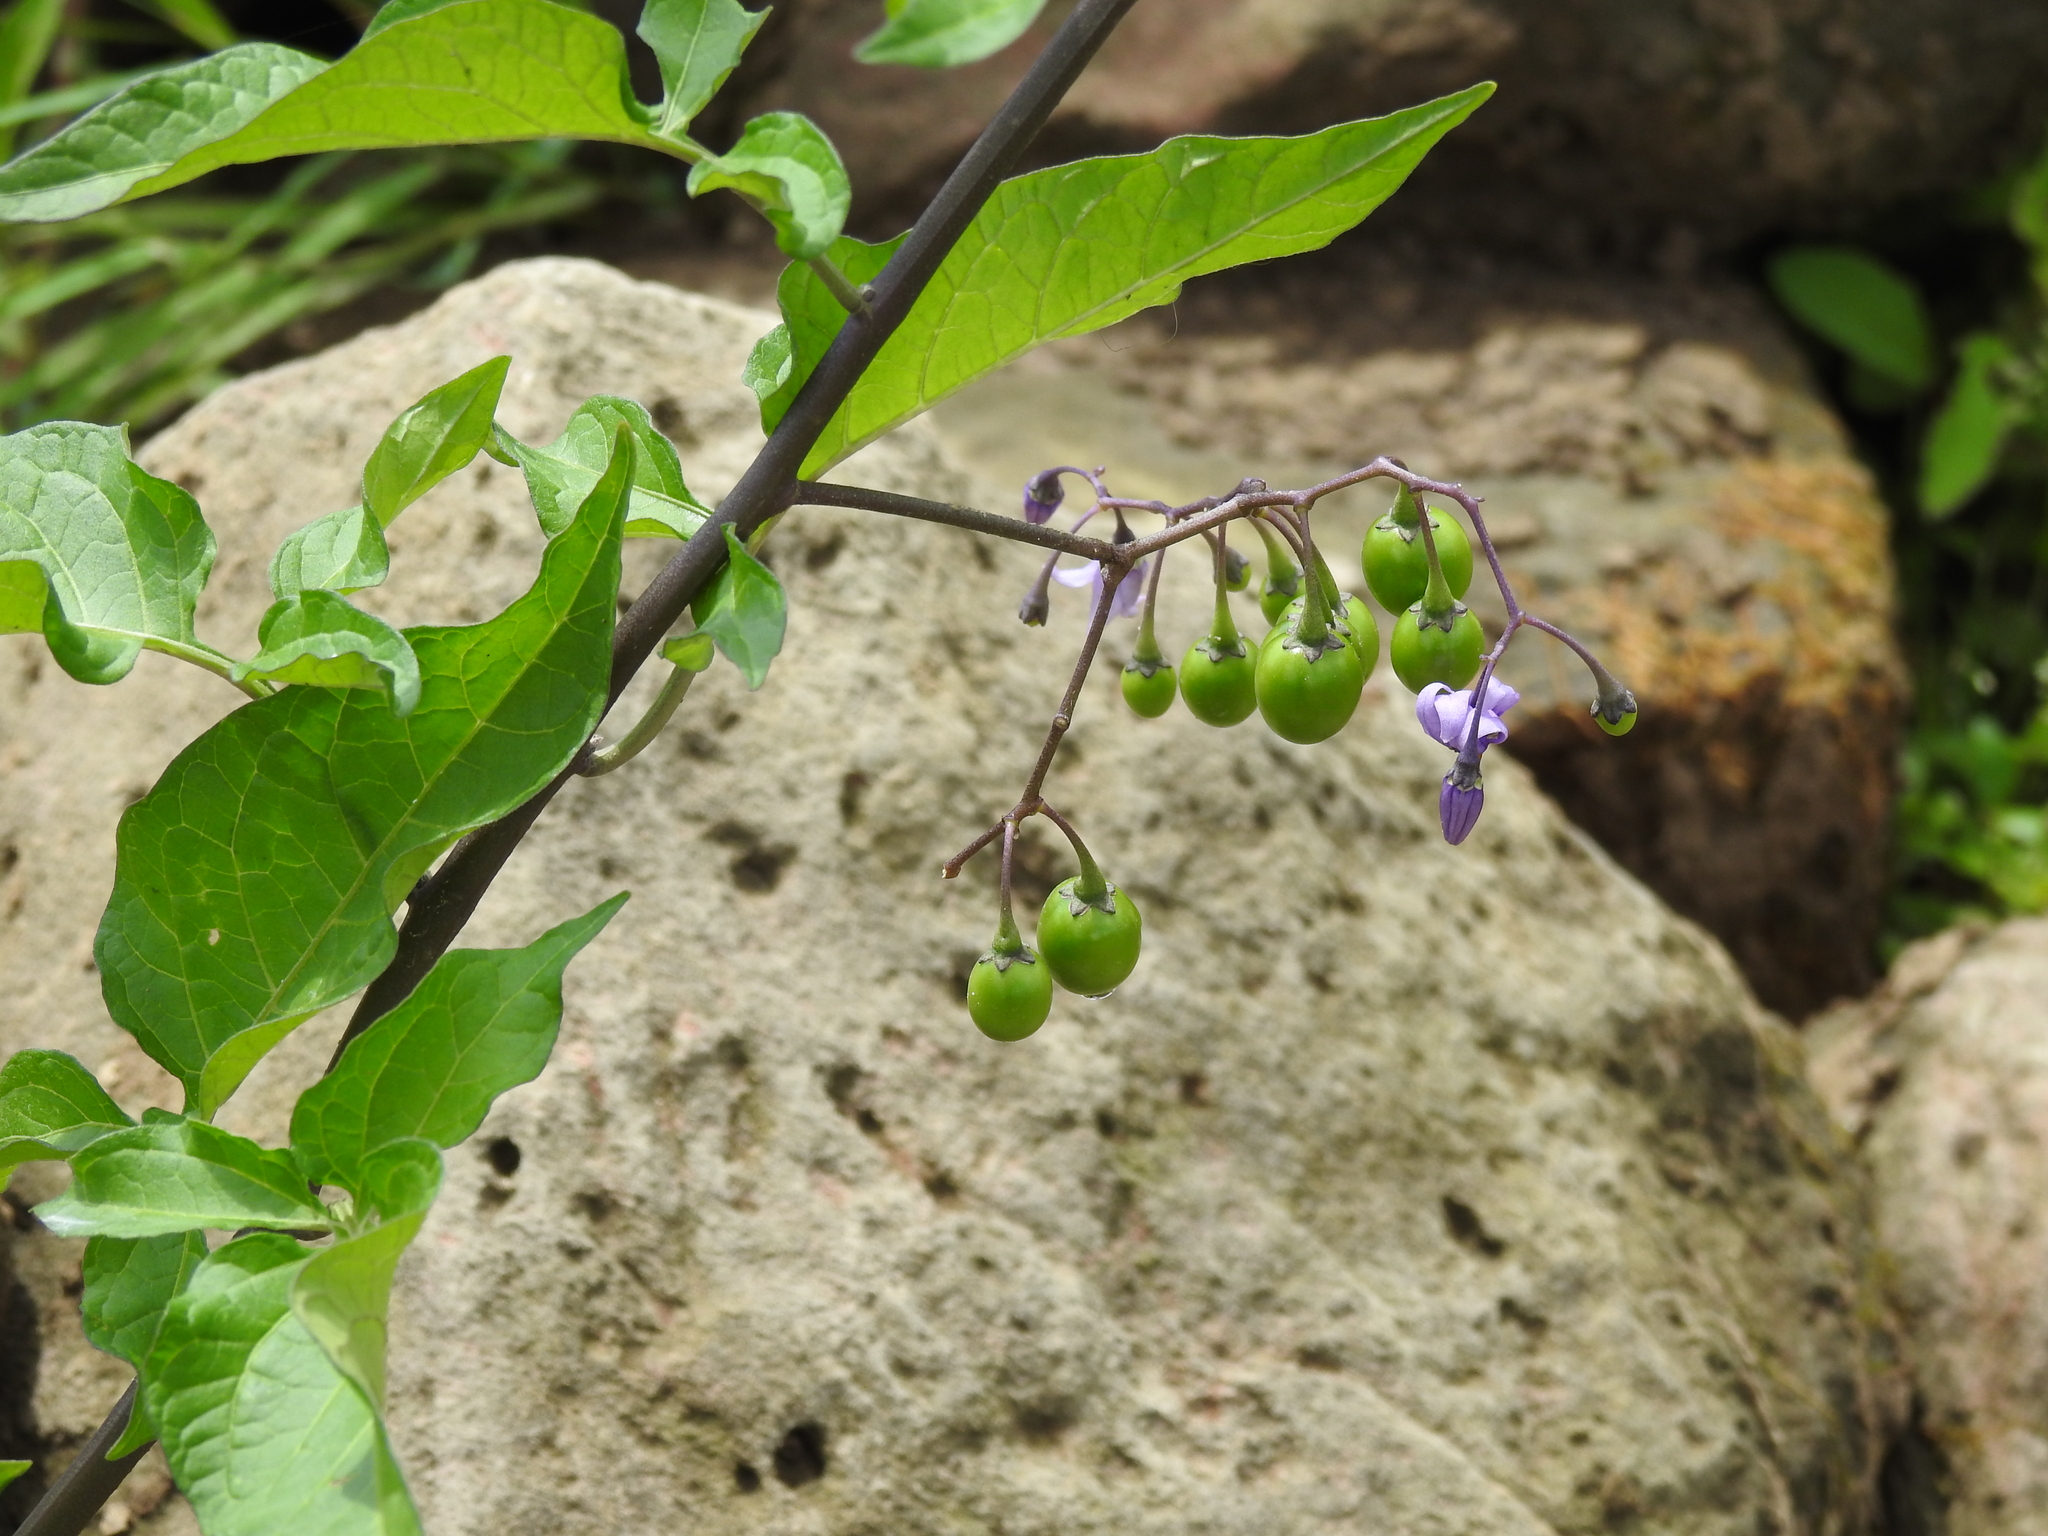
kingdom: Plantae
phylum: Tracheophyta
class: Magnoliopsida
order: Solanales
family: Solanaceae
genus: Solanum
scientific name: Solanum dulcamara
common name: Climbing nightshade
